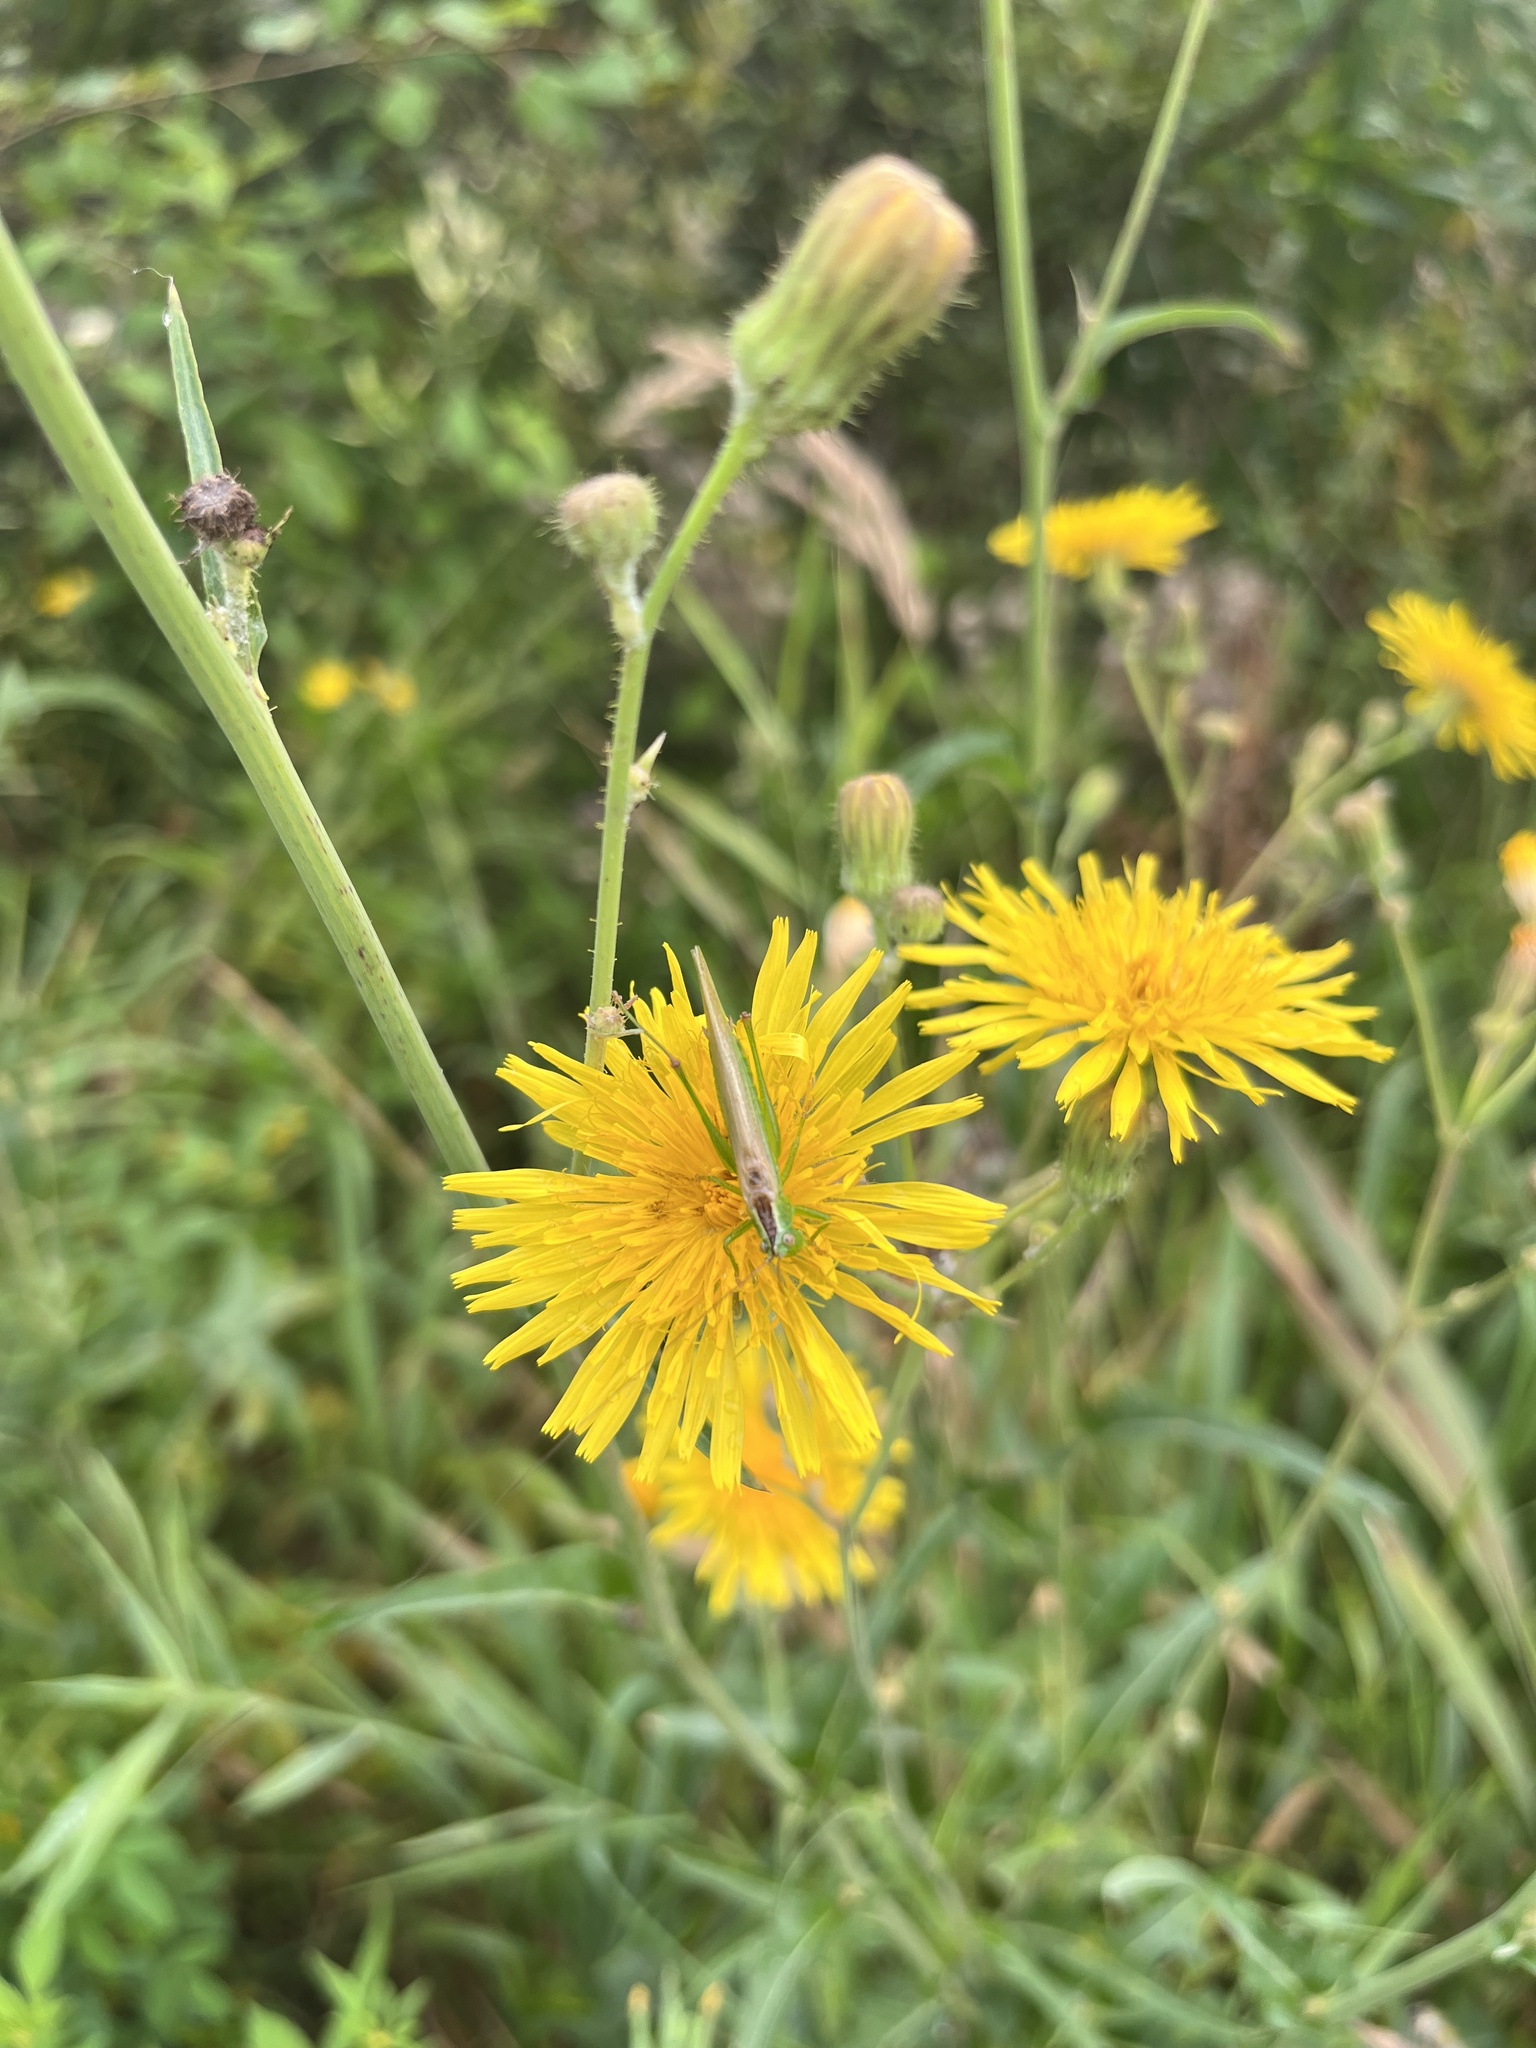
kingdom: Animalia
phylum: Arthropoda
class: Insecta
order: Orthoptera
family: Tettigoniidae
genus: Conocephalus
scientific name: Conocephalus fuscus
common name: Long-winged conehead
